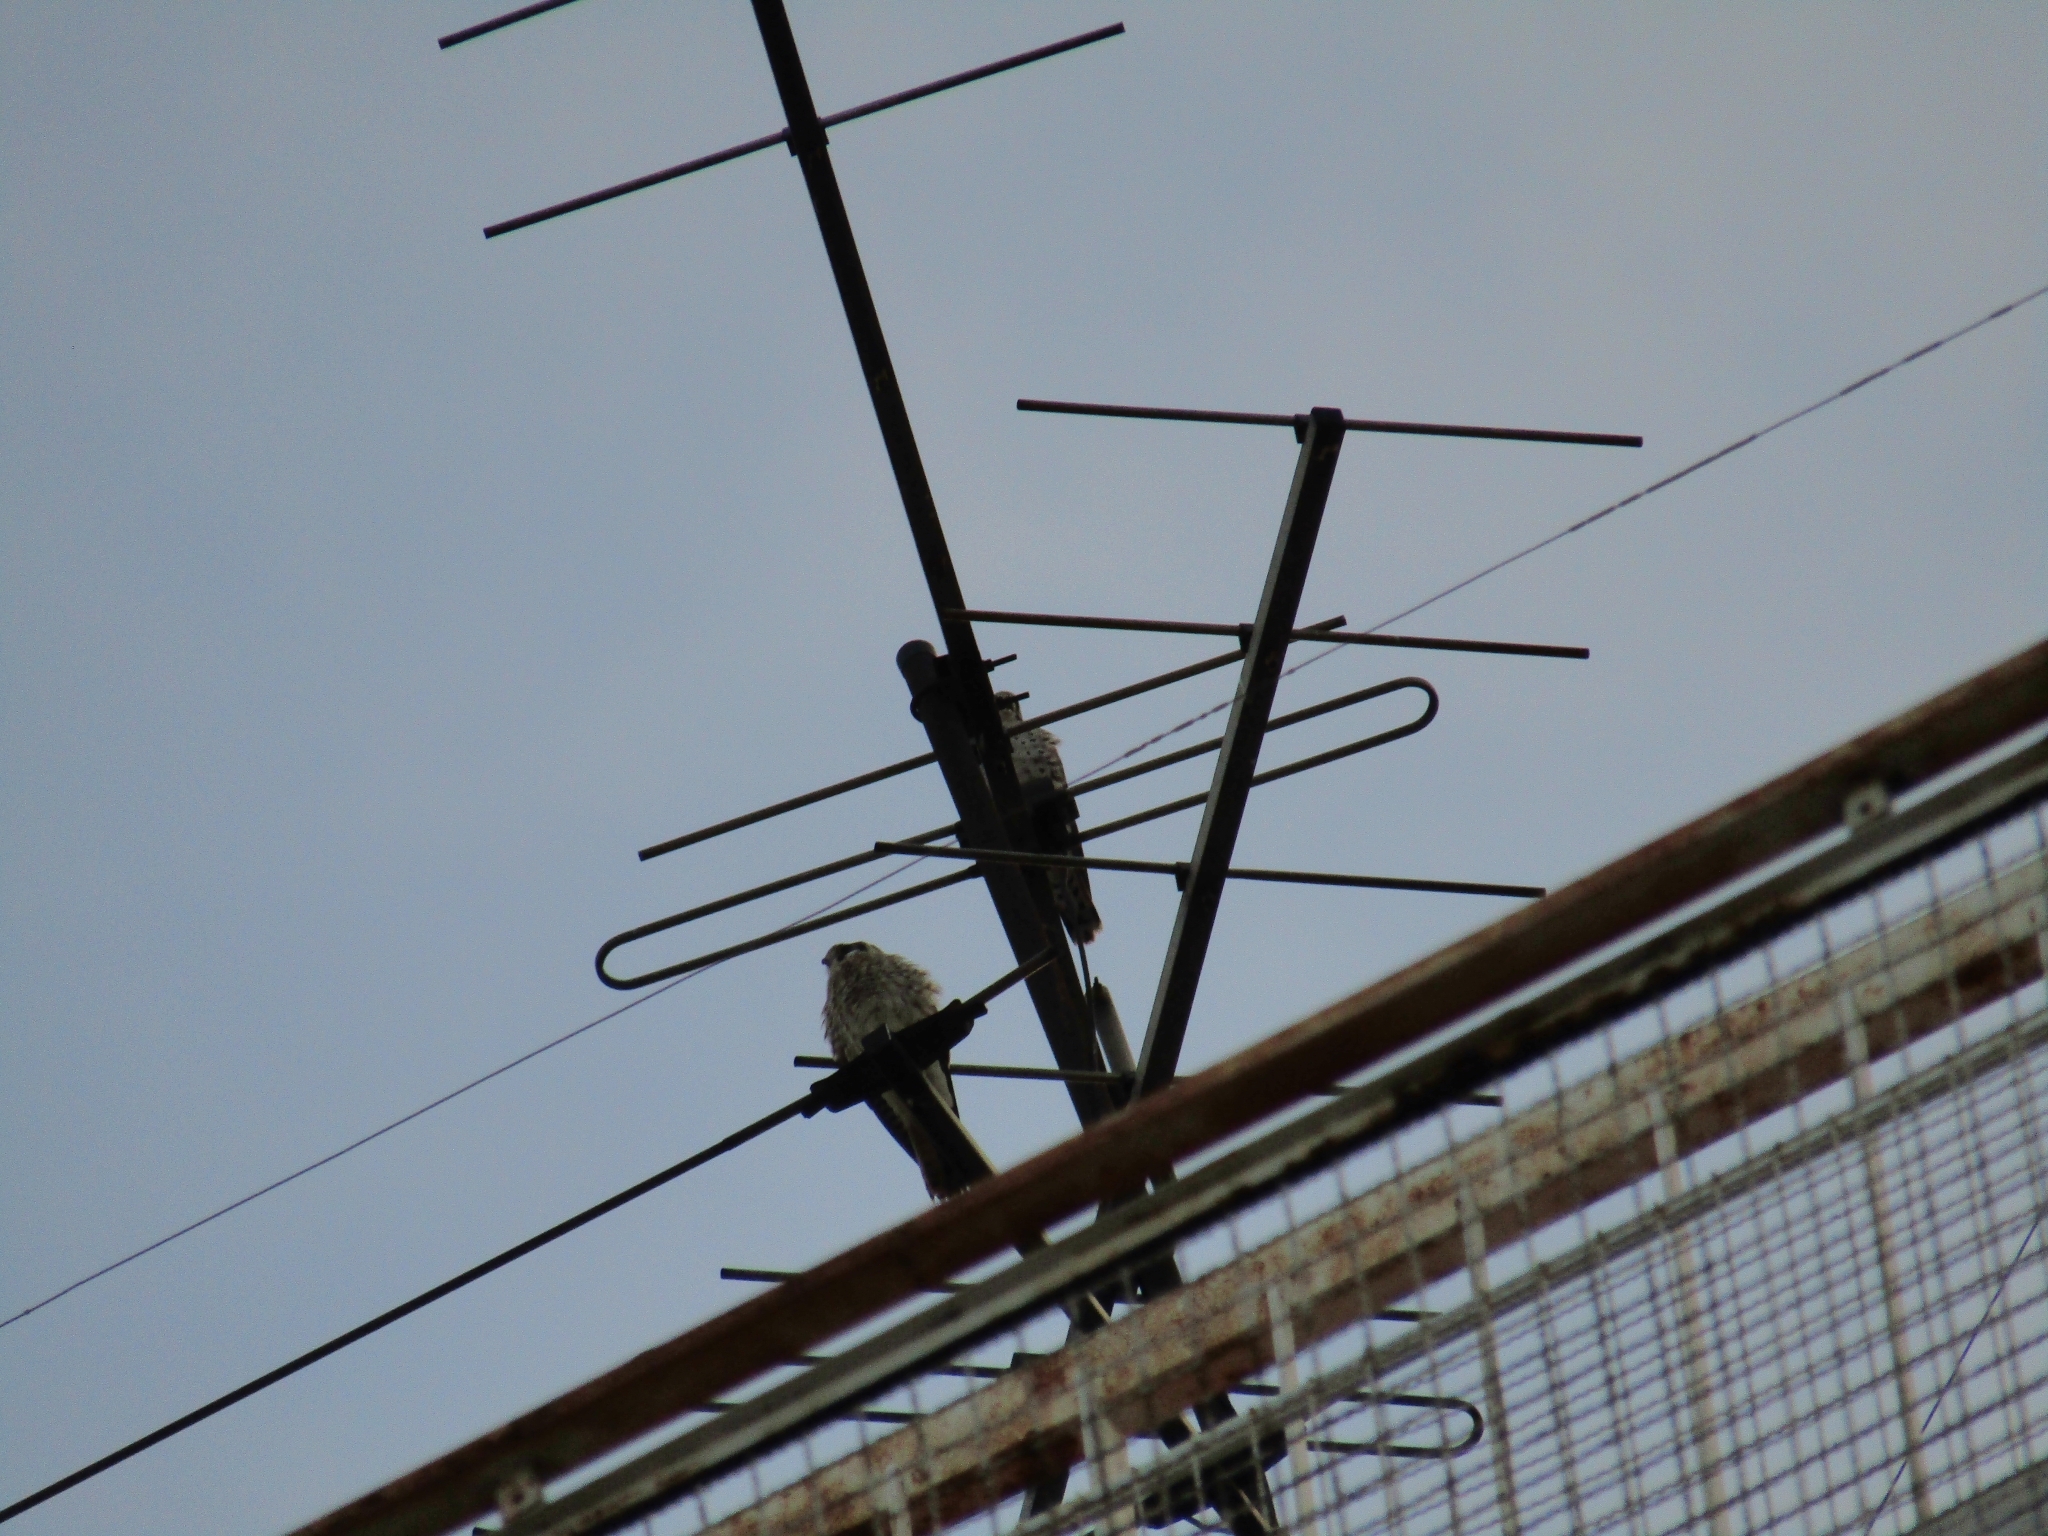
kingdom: Animalia
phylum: Chordata
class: Aves
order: Falconiformes
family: Falconidae
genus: Falco
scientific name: Falco sparverius
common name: American kestrel
